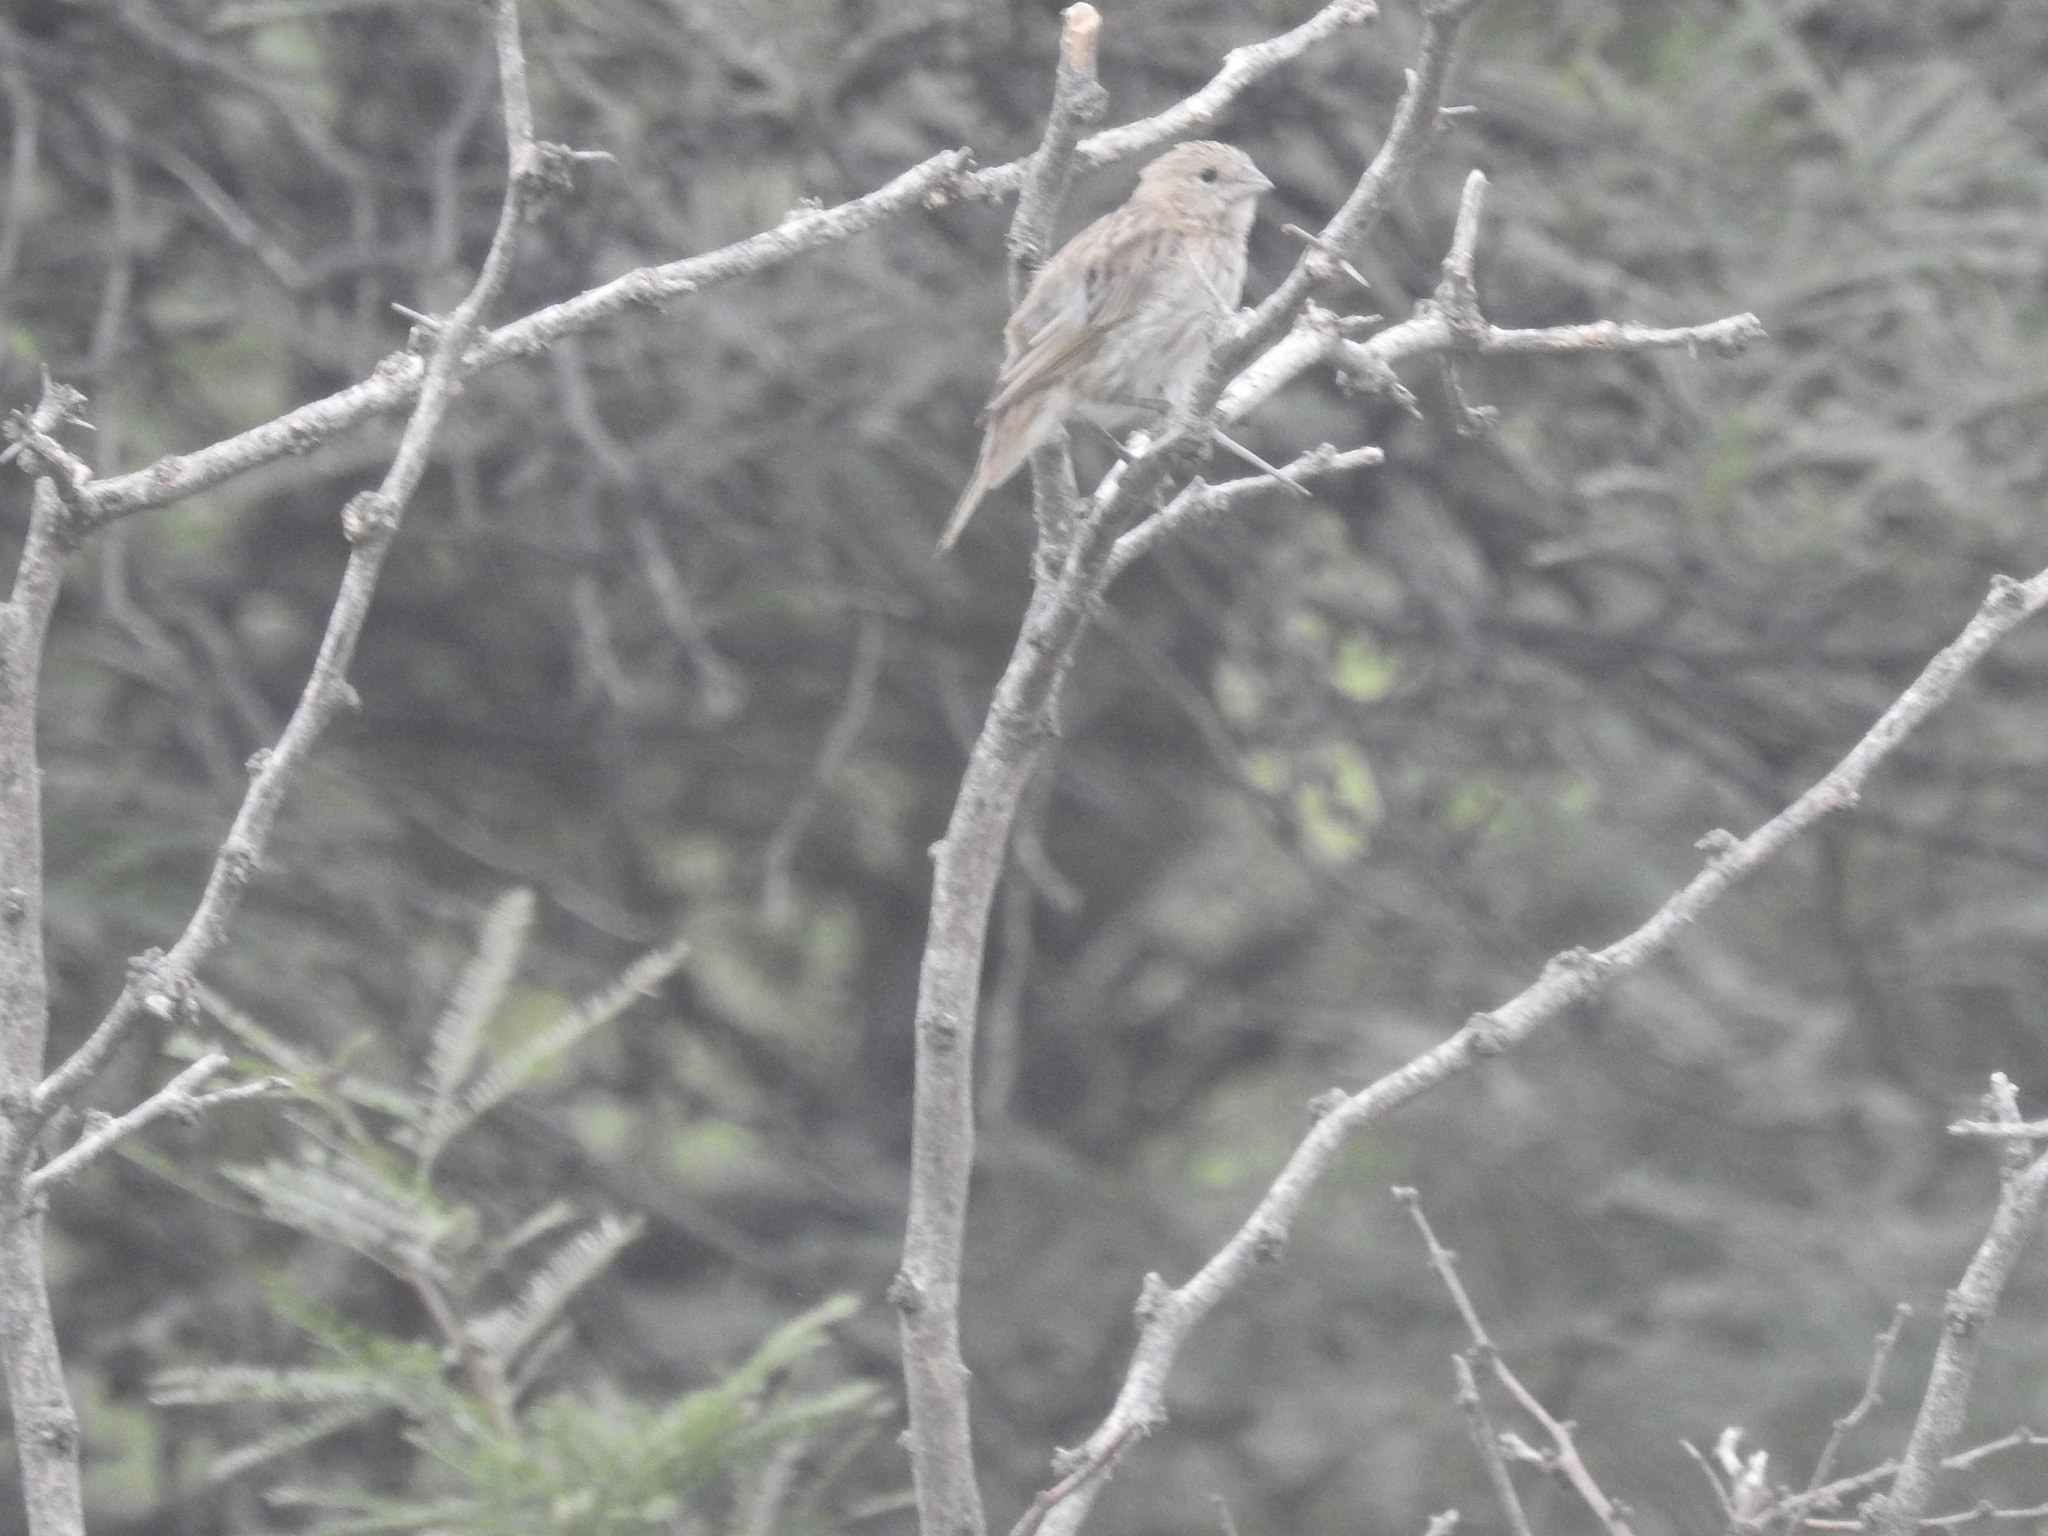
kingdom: Animalia
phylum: Chordata
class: Aves
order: Passeriformes
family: Thraupidae
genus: Sicalis
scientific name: Sicalis flaveola
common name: Saffron finch
